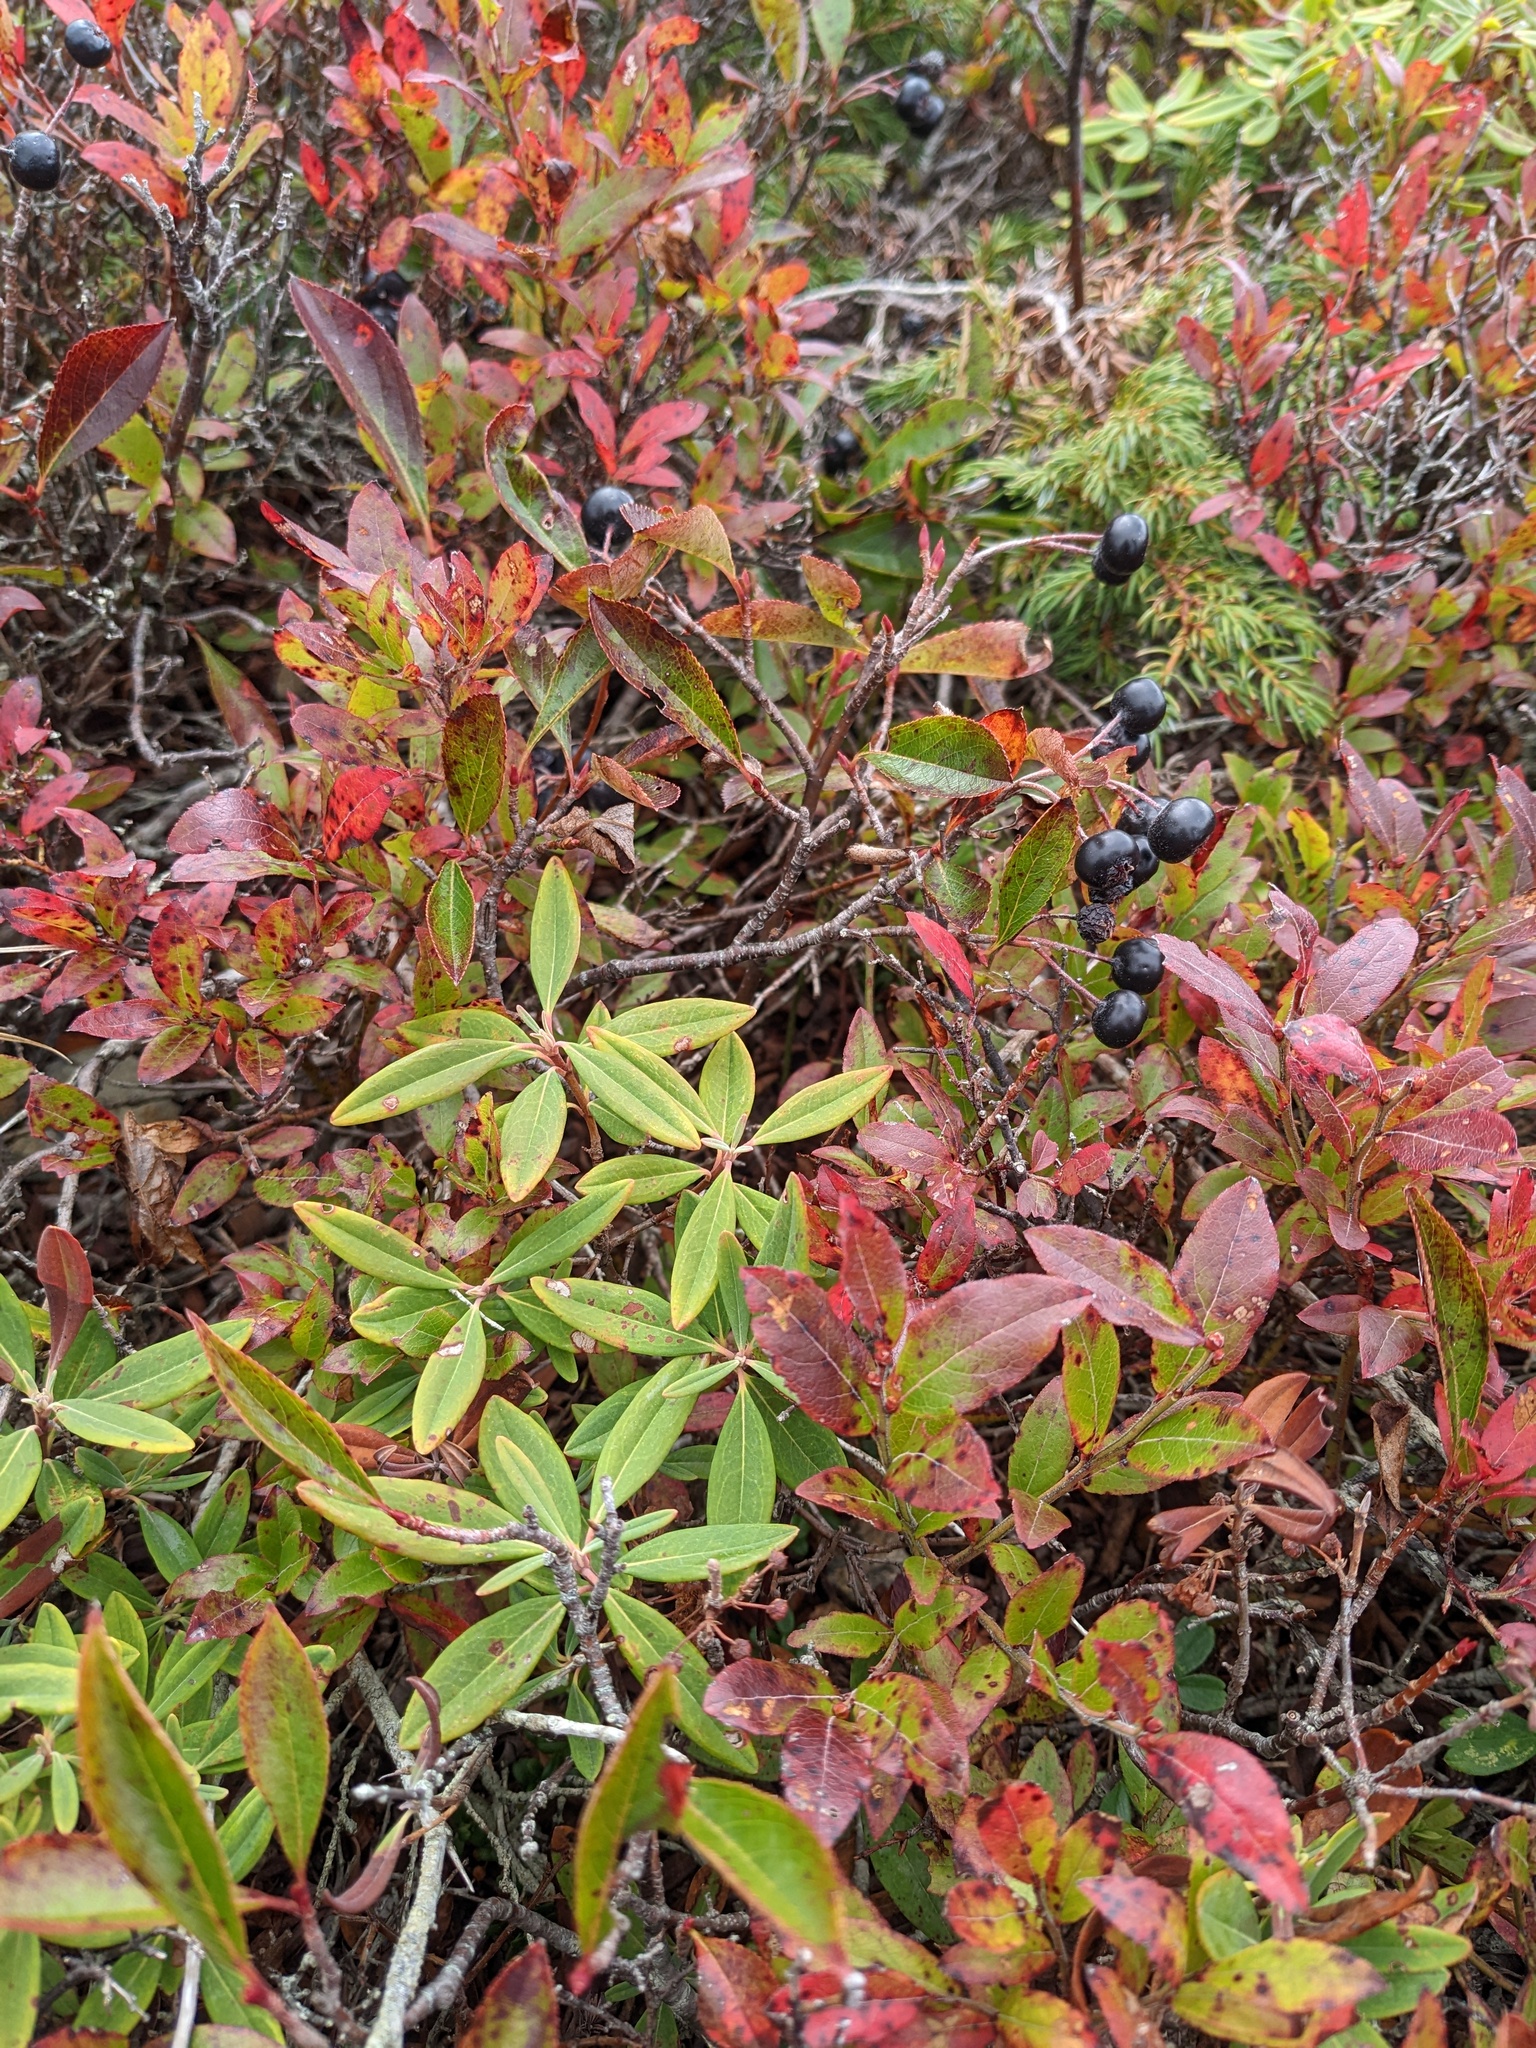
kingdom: Plantae
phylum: Tracheophyta
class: Magnoliopsida
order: Ericales
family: Ericaceae
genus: Kalmia
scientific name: Kalmia angustifolia
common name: Sheep-laurel
